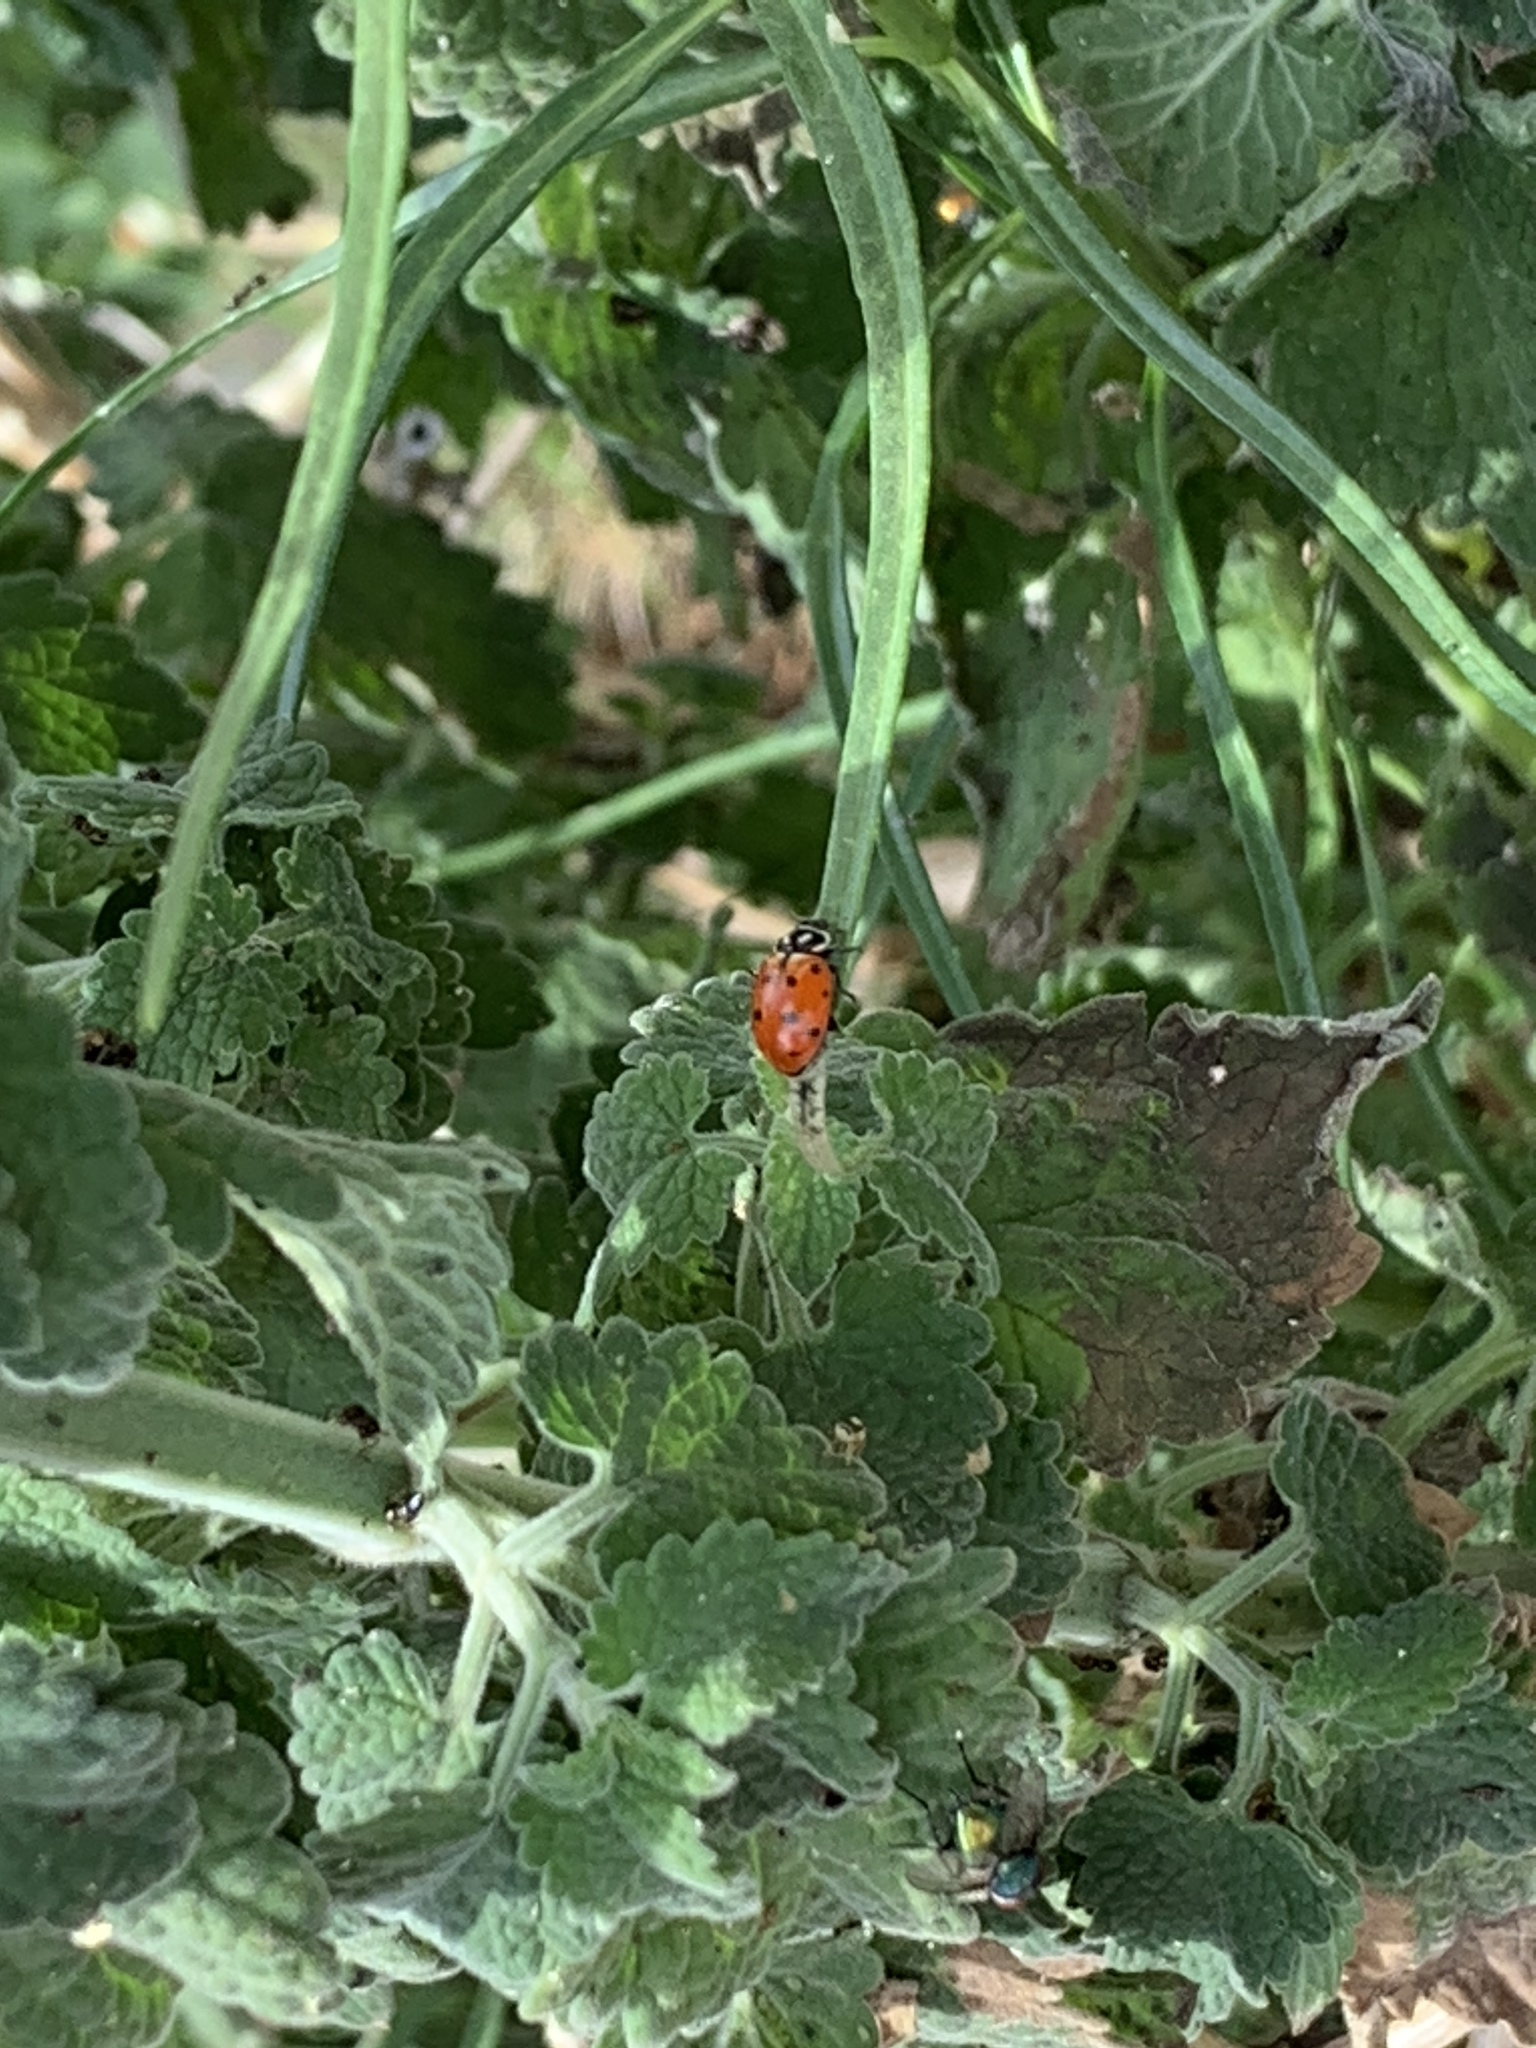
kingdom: Animalia
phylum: Arthropoda
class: Insecta
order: Coleoptera
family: Coccinellidae
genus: Hippodamia
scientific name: Hippodamia convergens
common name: Convergent lady beetle
